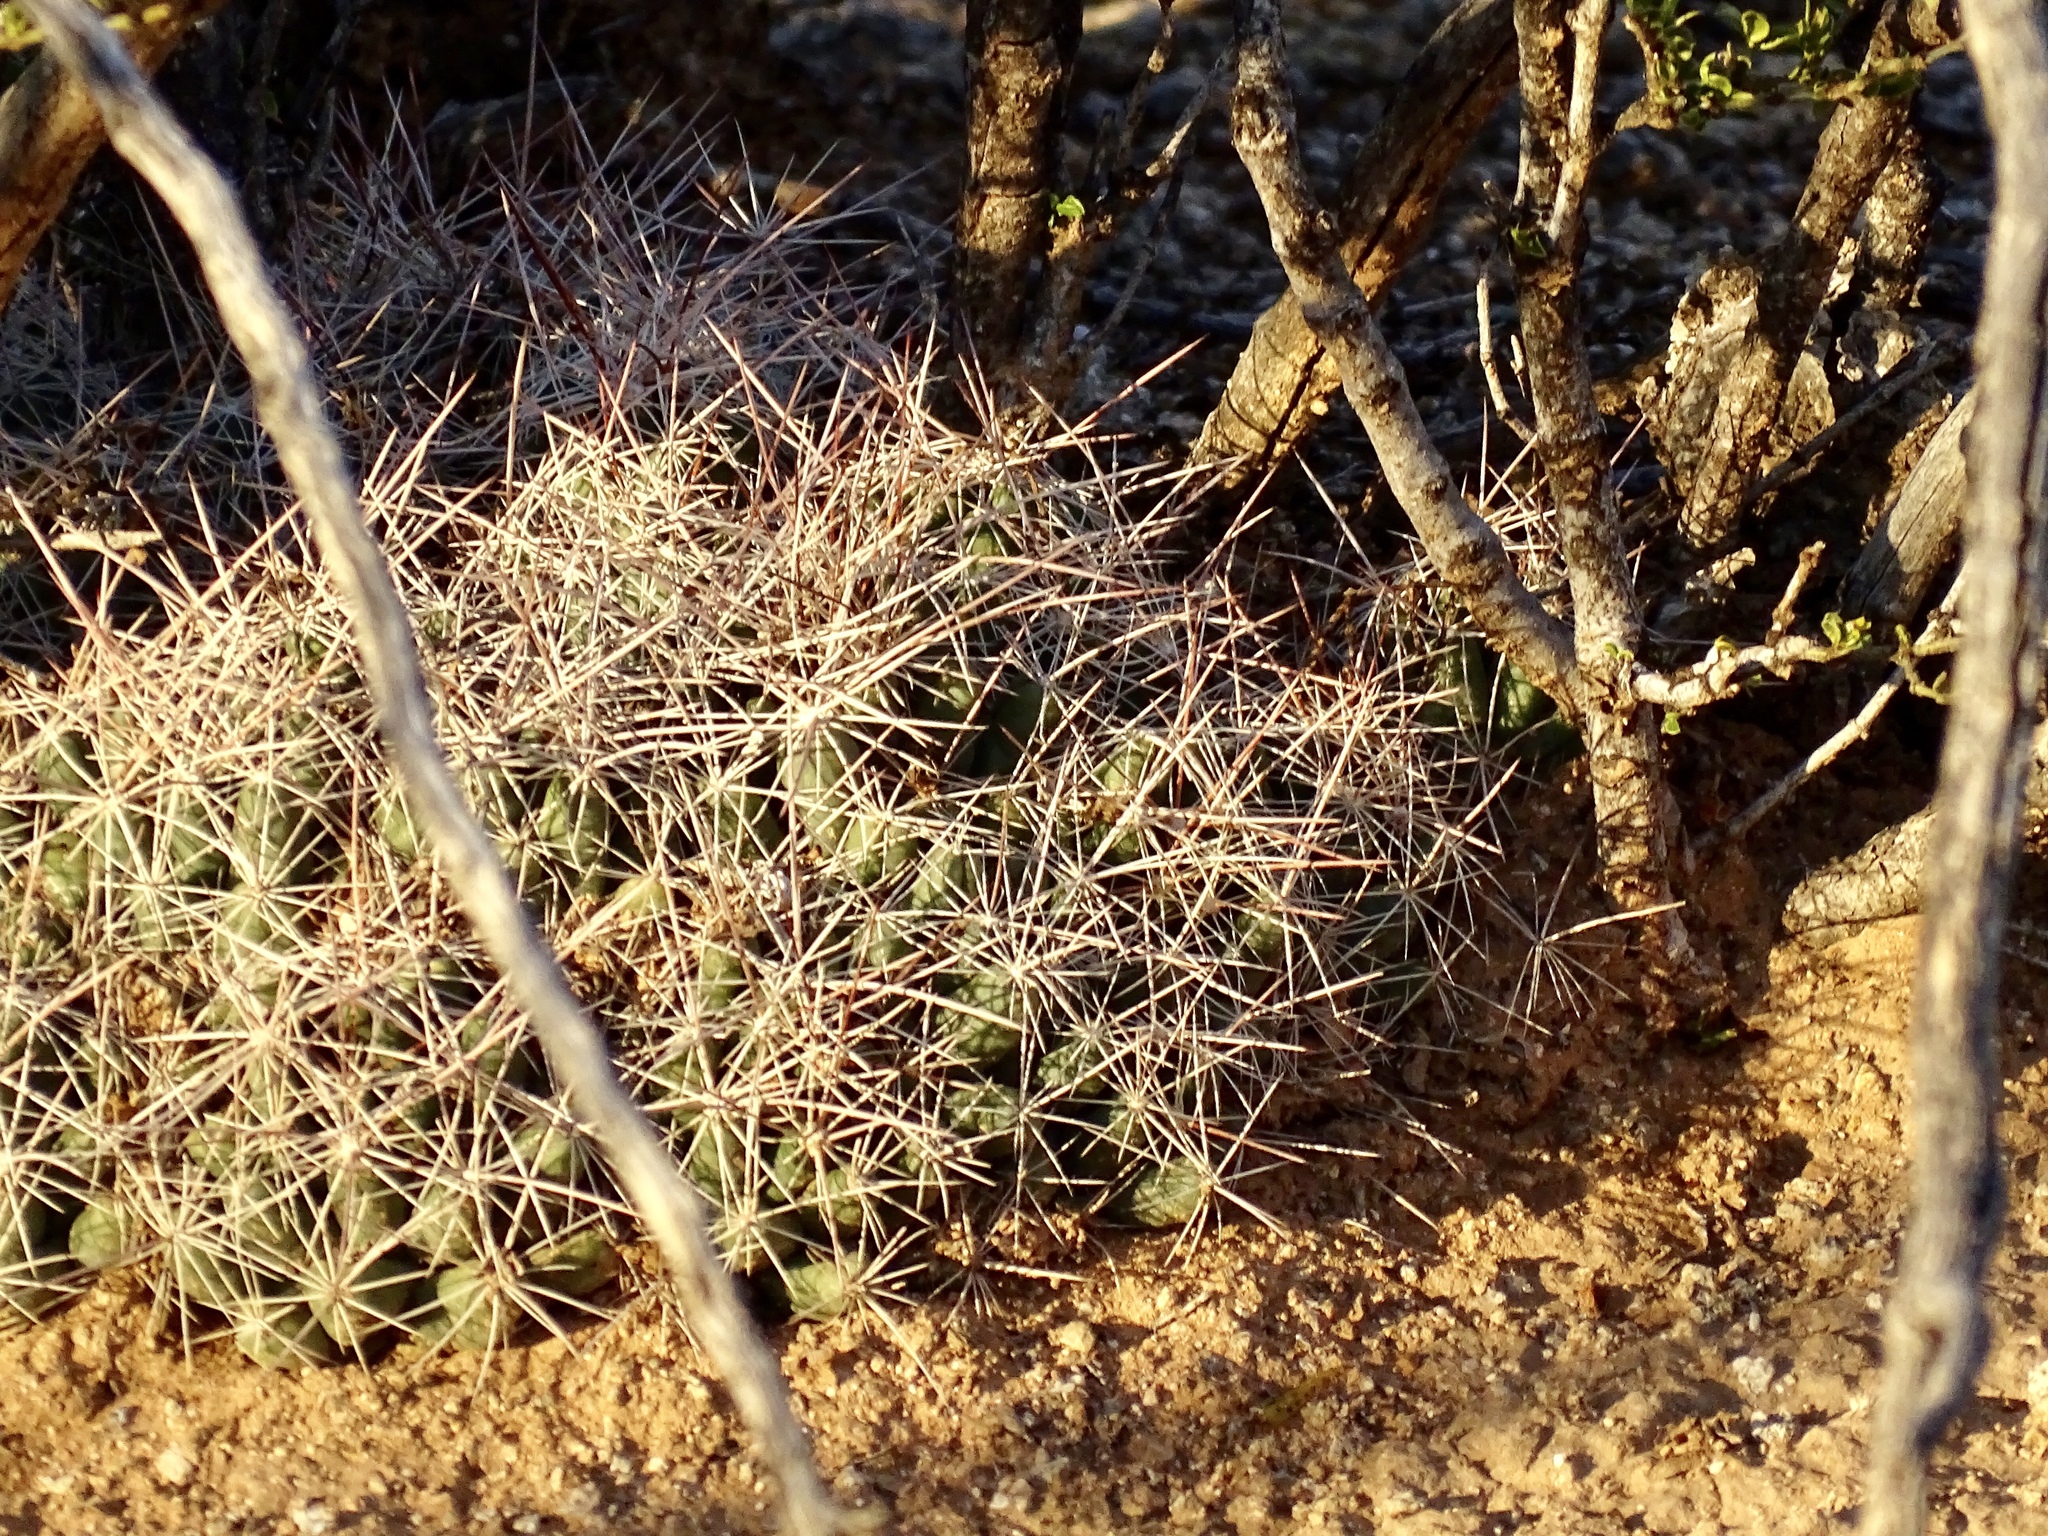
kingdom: Plantae
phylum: Tracheophyta
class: Magnoliopsida
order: Caryophyllales
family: Cactaceae
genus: Coryphantha
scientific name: Coryphantha macromeris
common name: Nipple beehive cactus
